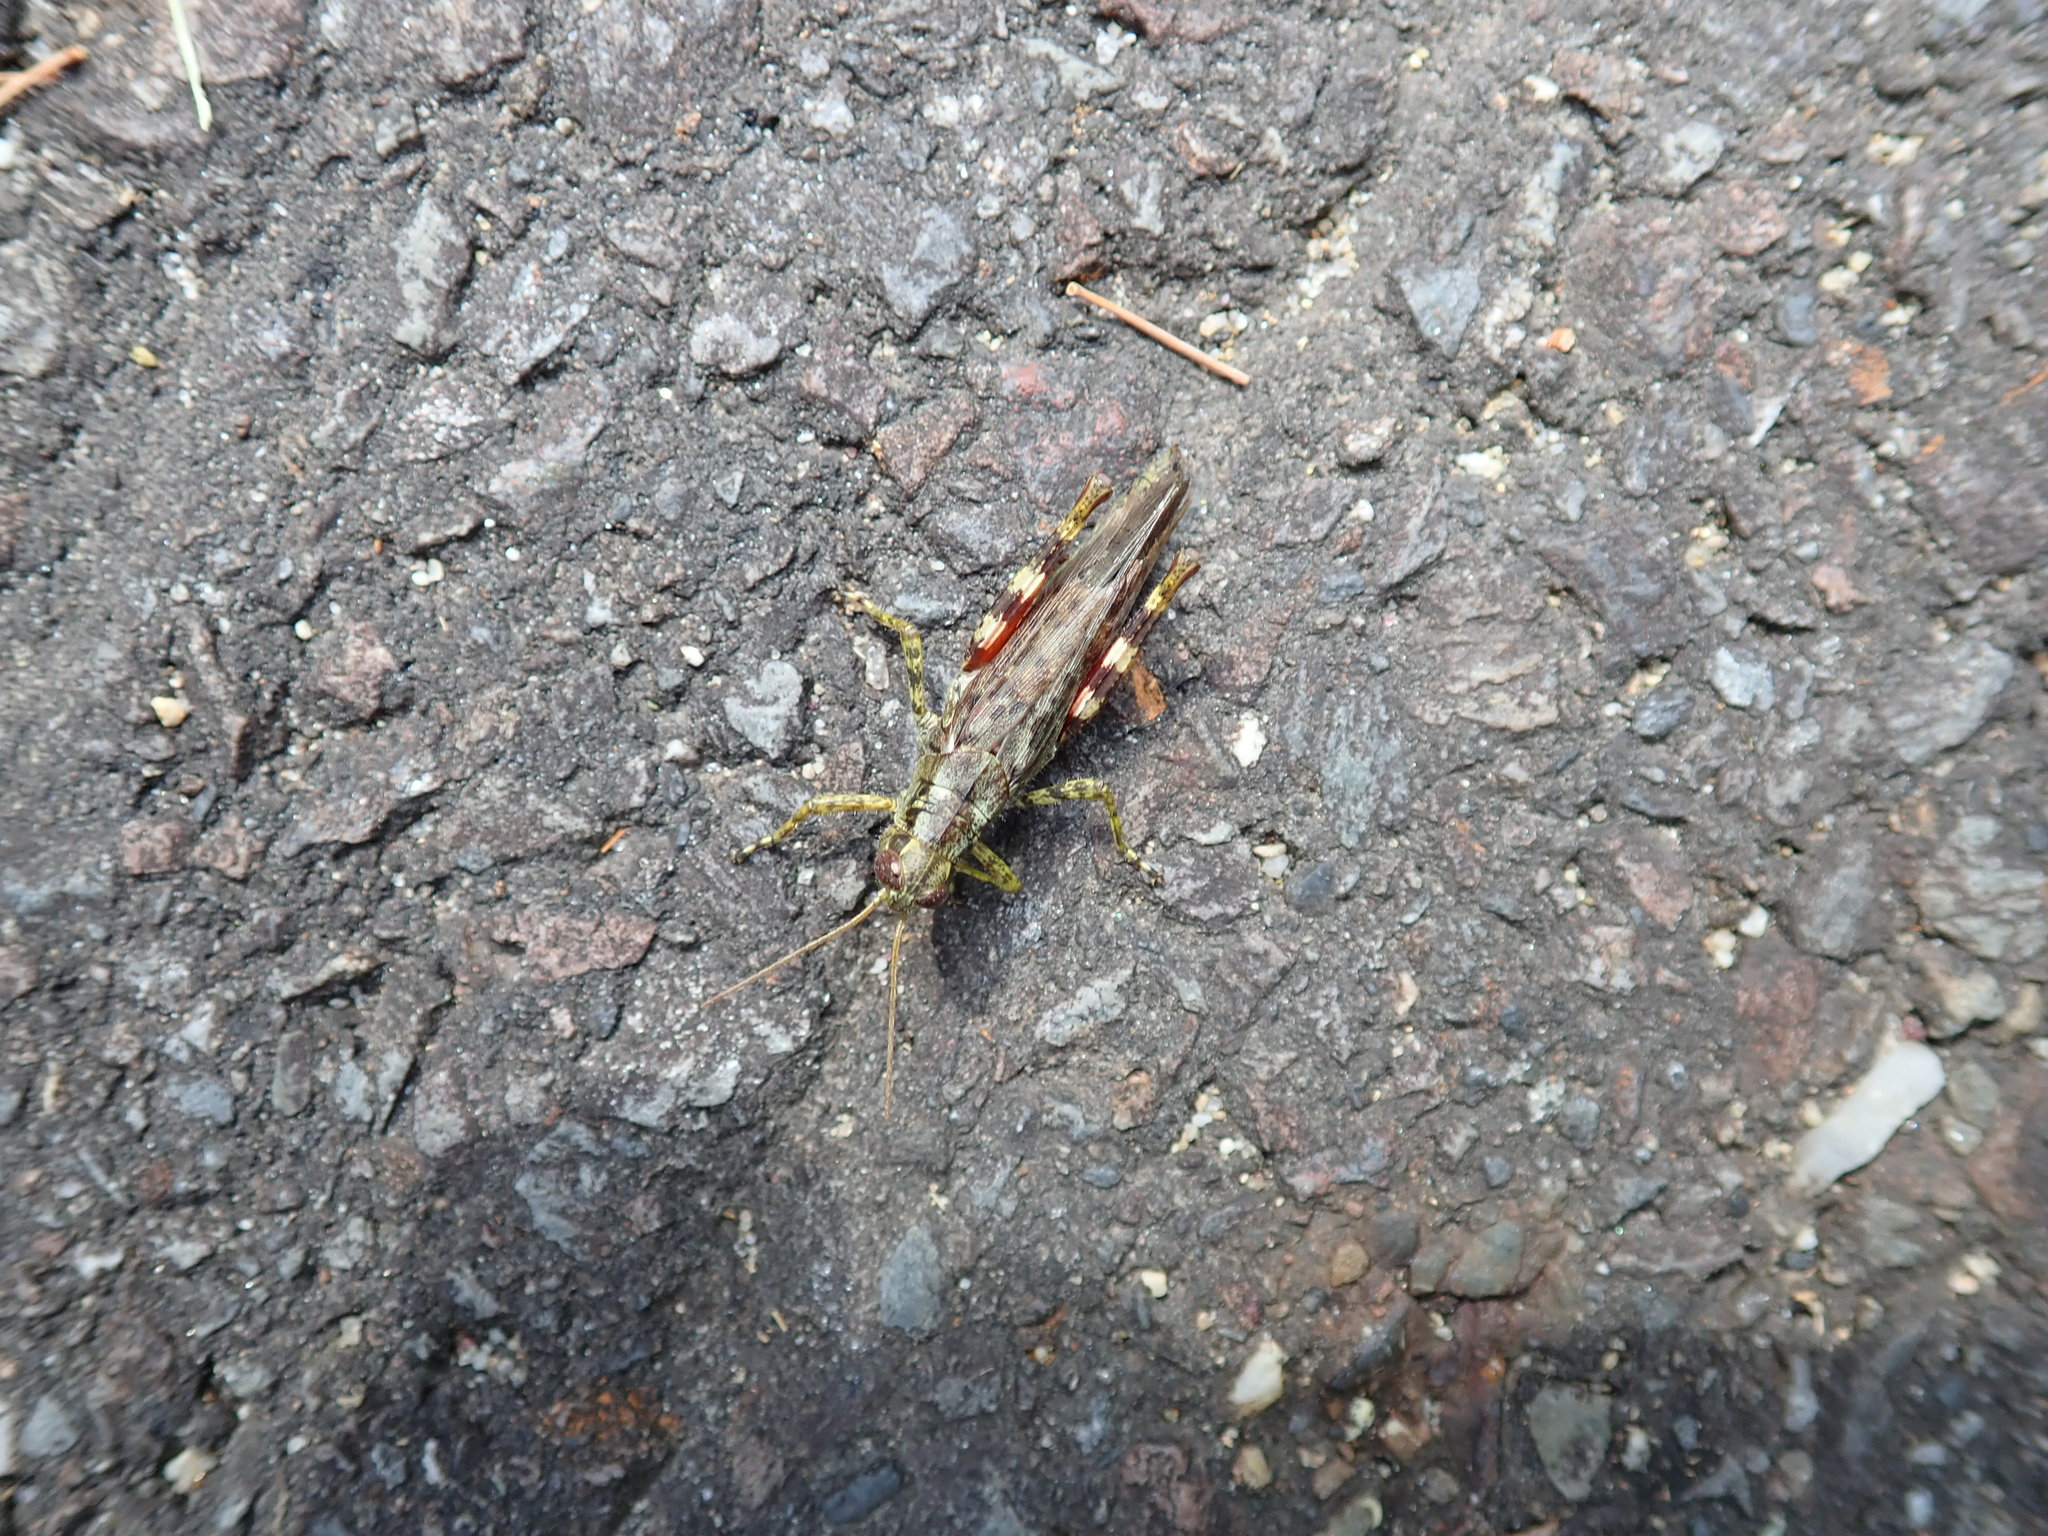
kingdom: Animalia
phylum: Arthropoda
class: Insecta
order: Orthoptera
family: Acrididae
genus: Melanoplus
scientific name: Melanoplus punctulatus
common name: Pine-tree spur-throat grasshopper
